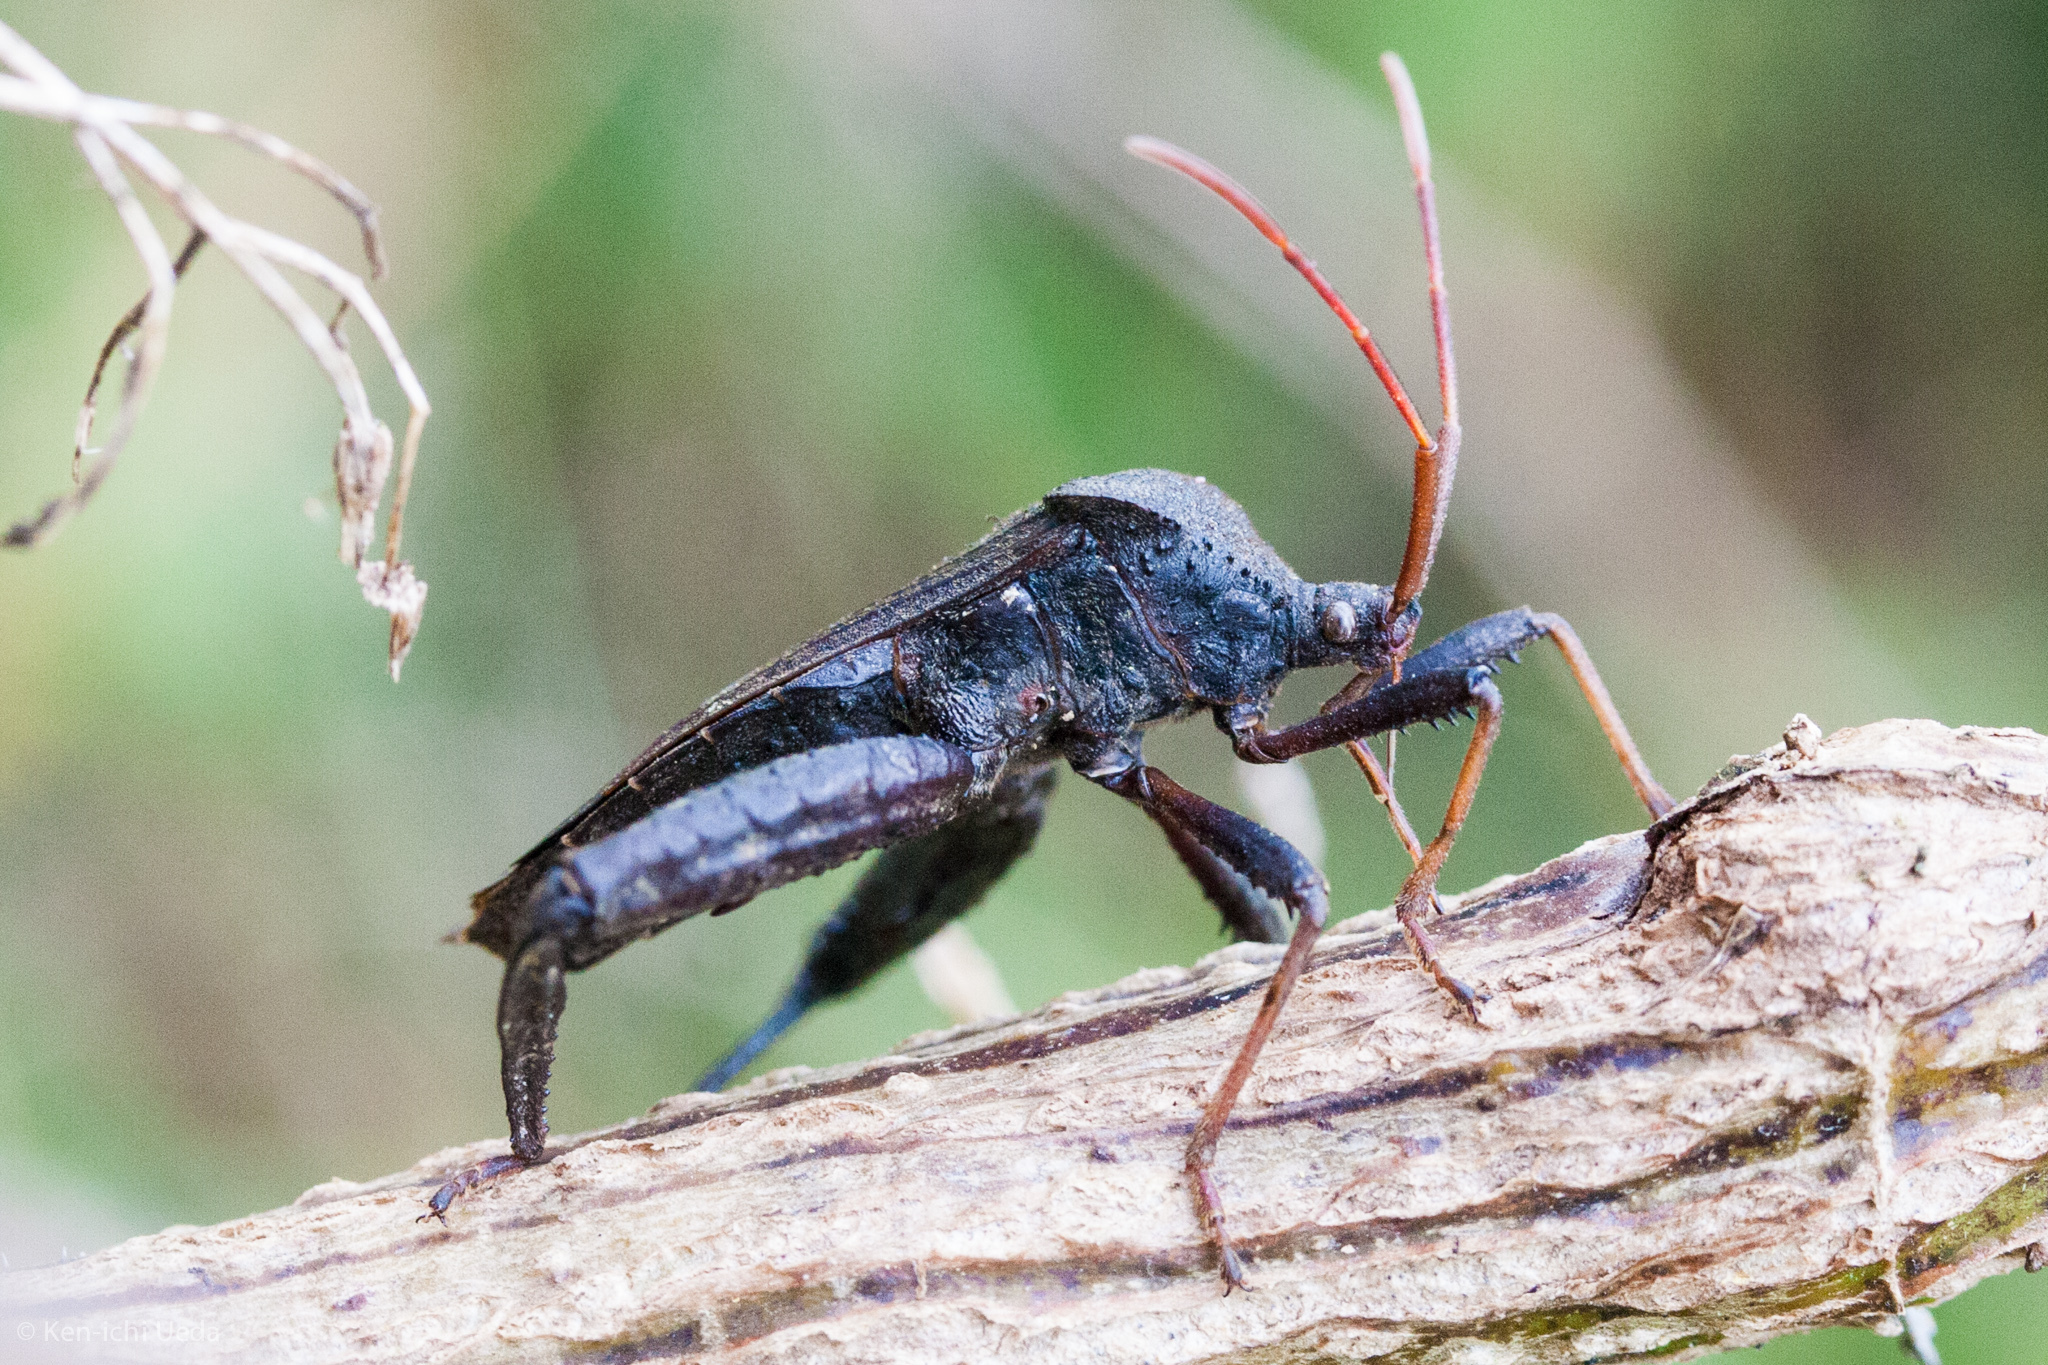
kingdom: Animalia
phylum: Arthropoda
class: Insecta
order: Hemiptera
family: Coreidae
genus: Acanthocephala
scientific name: Acanthocephala femorata
